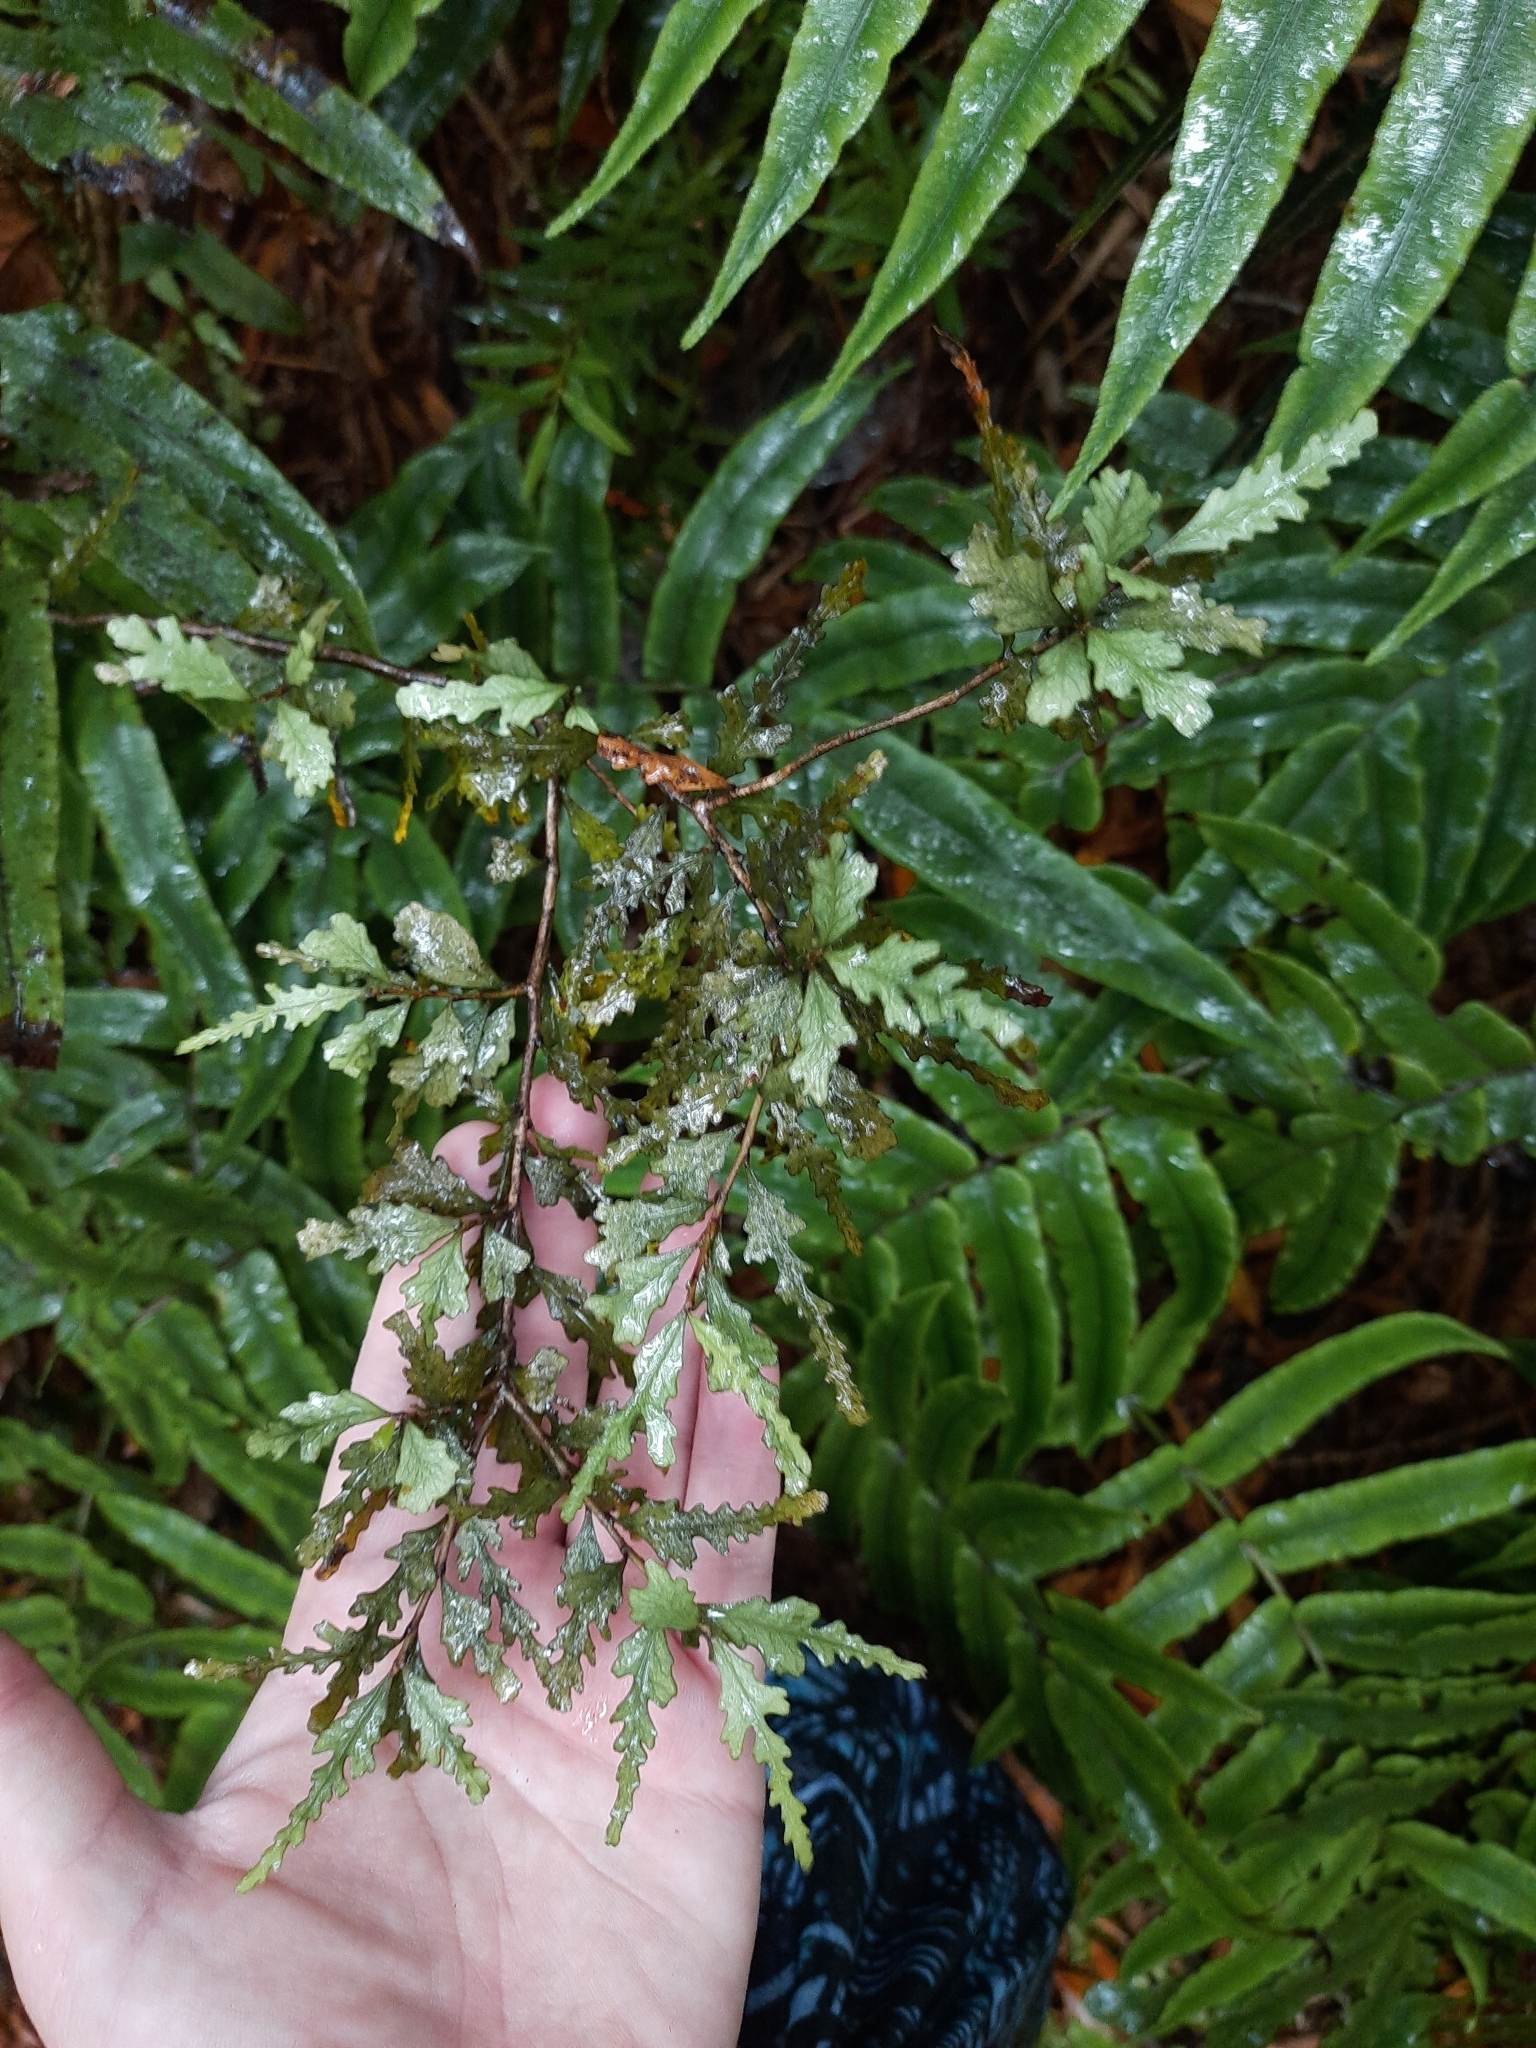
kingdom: Plantae
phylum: Tracheophyta
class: Magnoliopsida
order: Oxalidales
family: Elaeocarpaceae
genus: Elaeocarpus
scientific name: Elaeocarpus hookerianus
